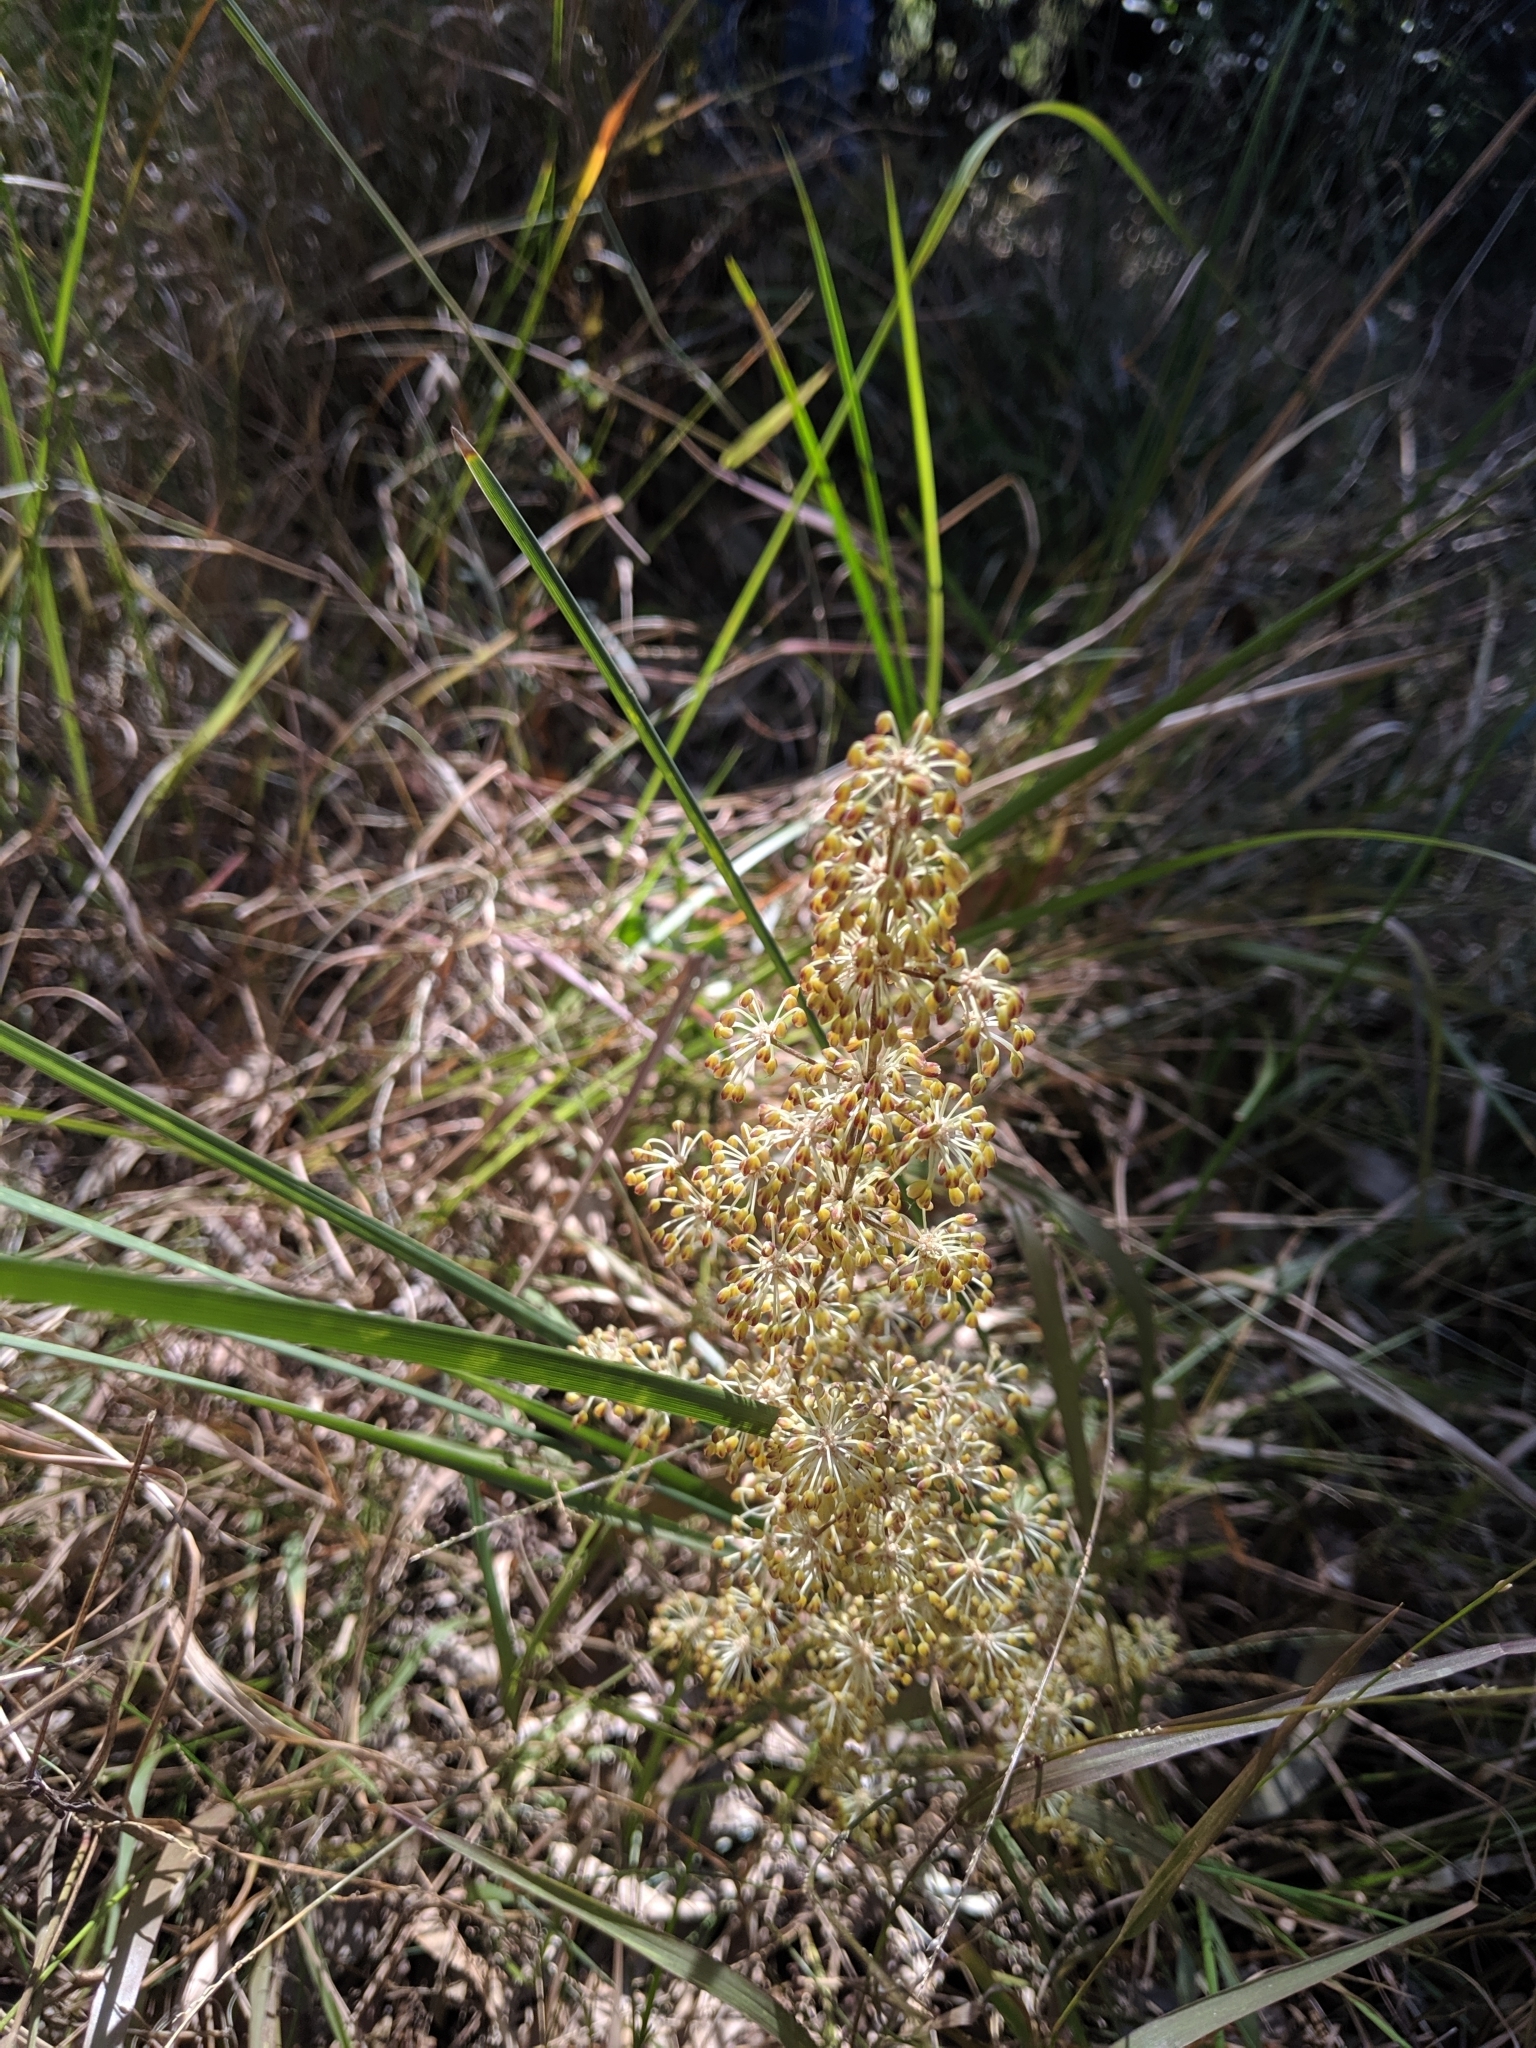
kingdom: Plantae
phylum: Tracheophyta
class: Liliopsida
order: Asparagales
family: Asparagaceae
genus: Lomandra
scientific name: Lomandra multiflora
